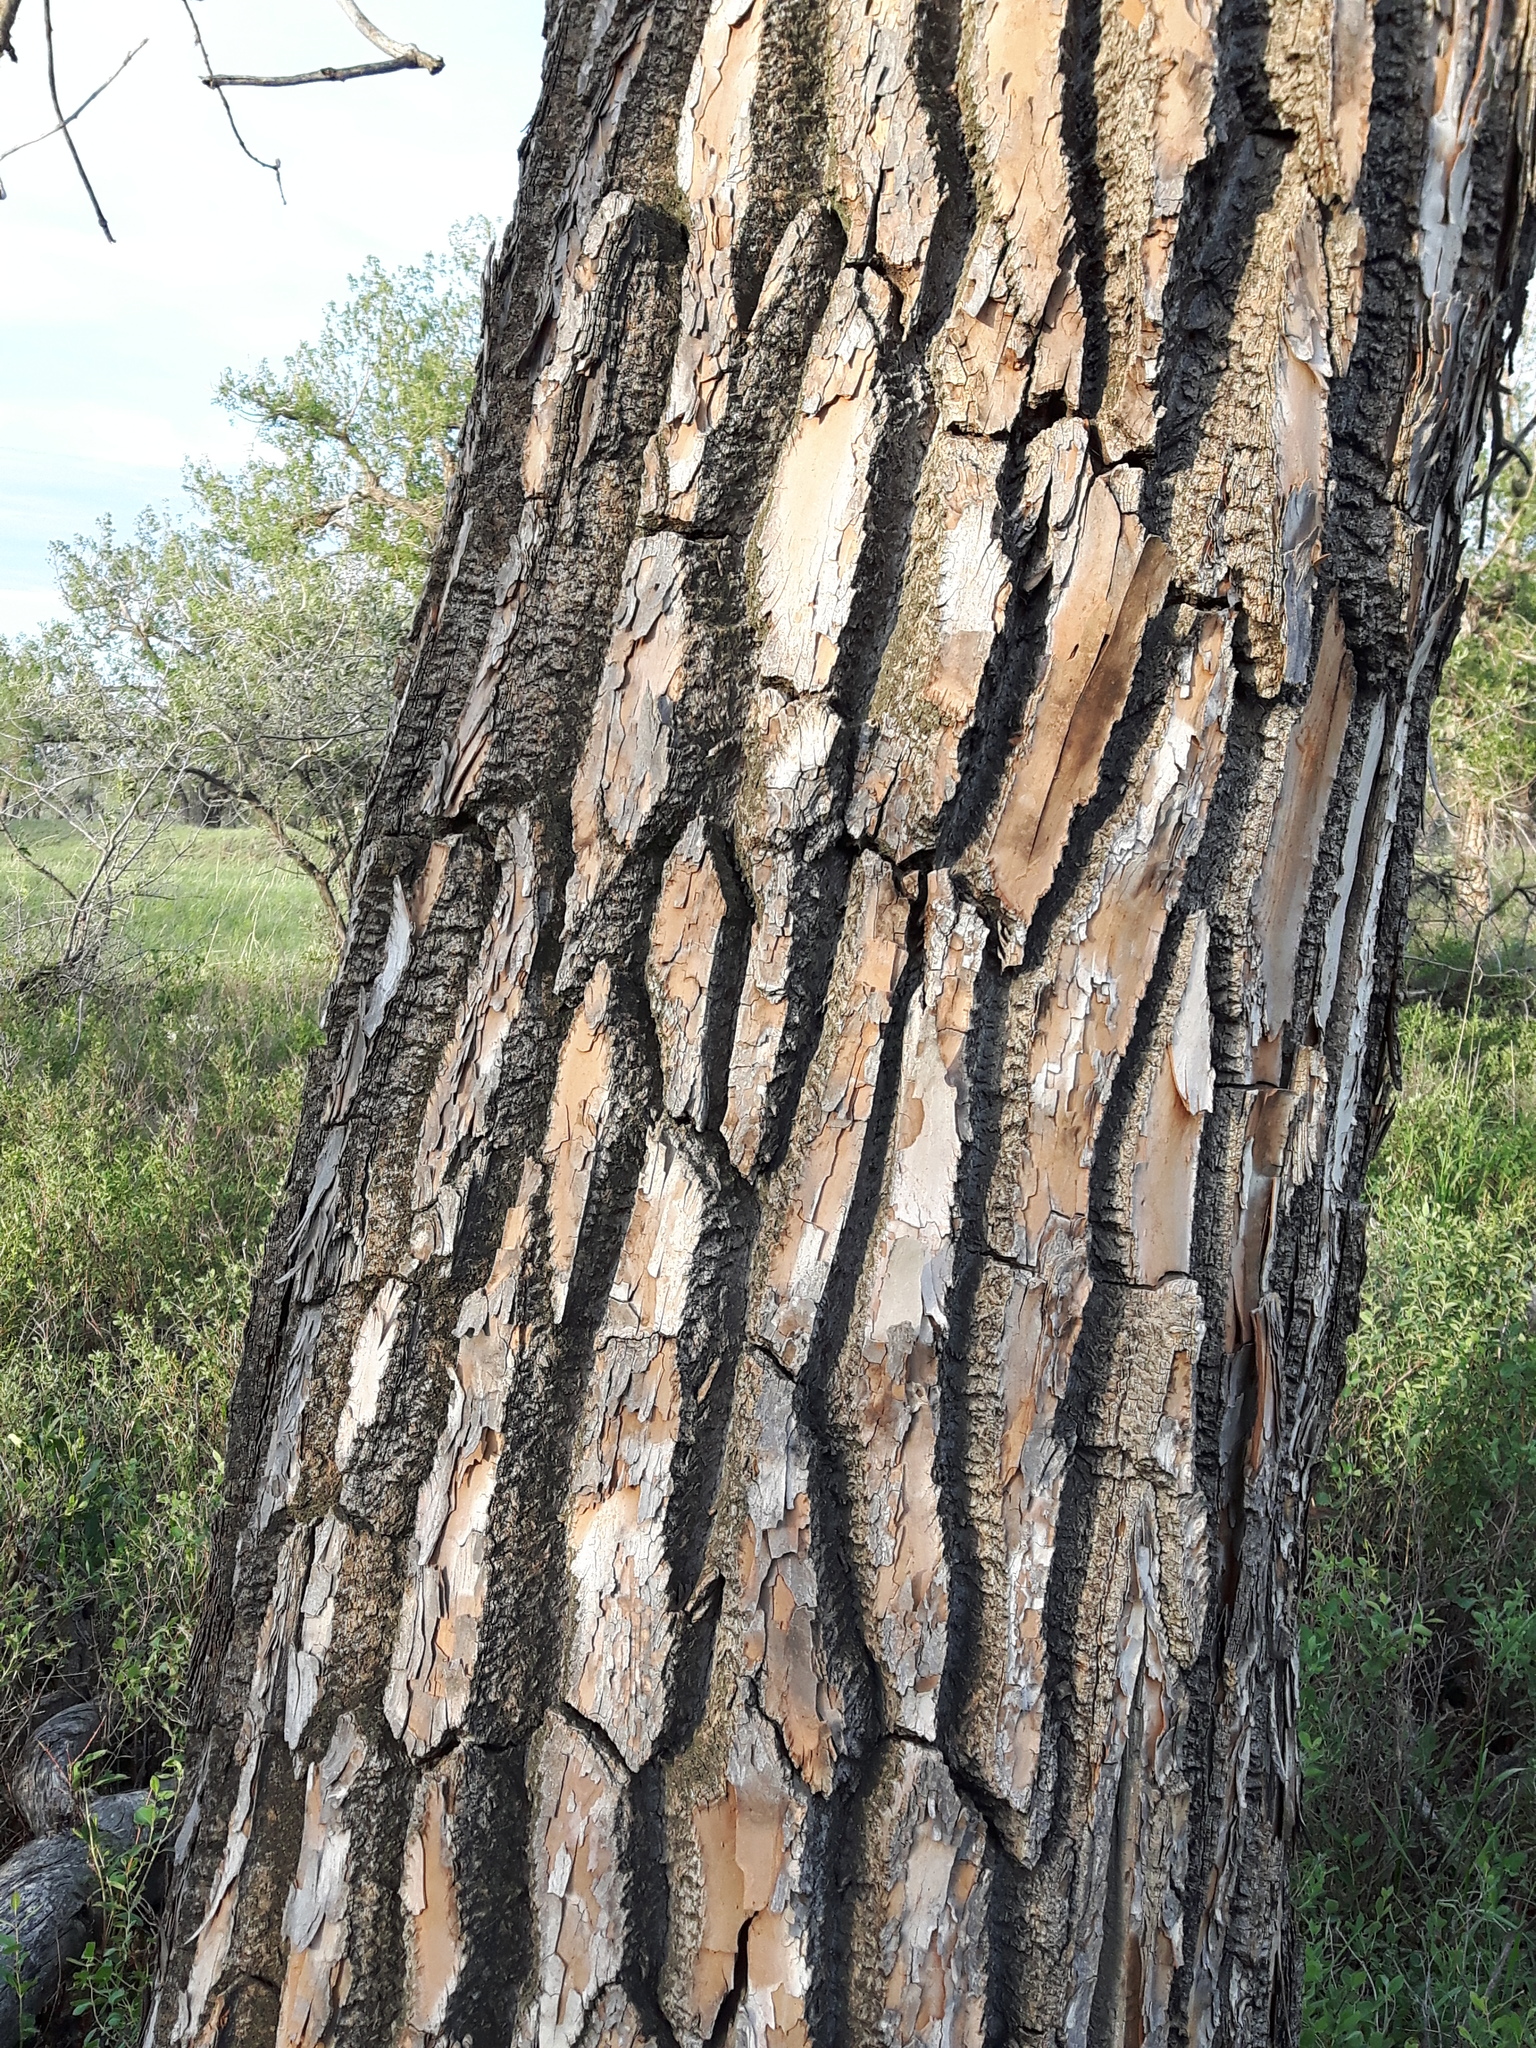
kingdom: Plantae
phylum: Tracheophyta
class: Magnoliopsida
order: Malpighiales
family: Salicaceae
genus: Populus
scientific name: Populus deltoides
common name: Eastern cottonwood
